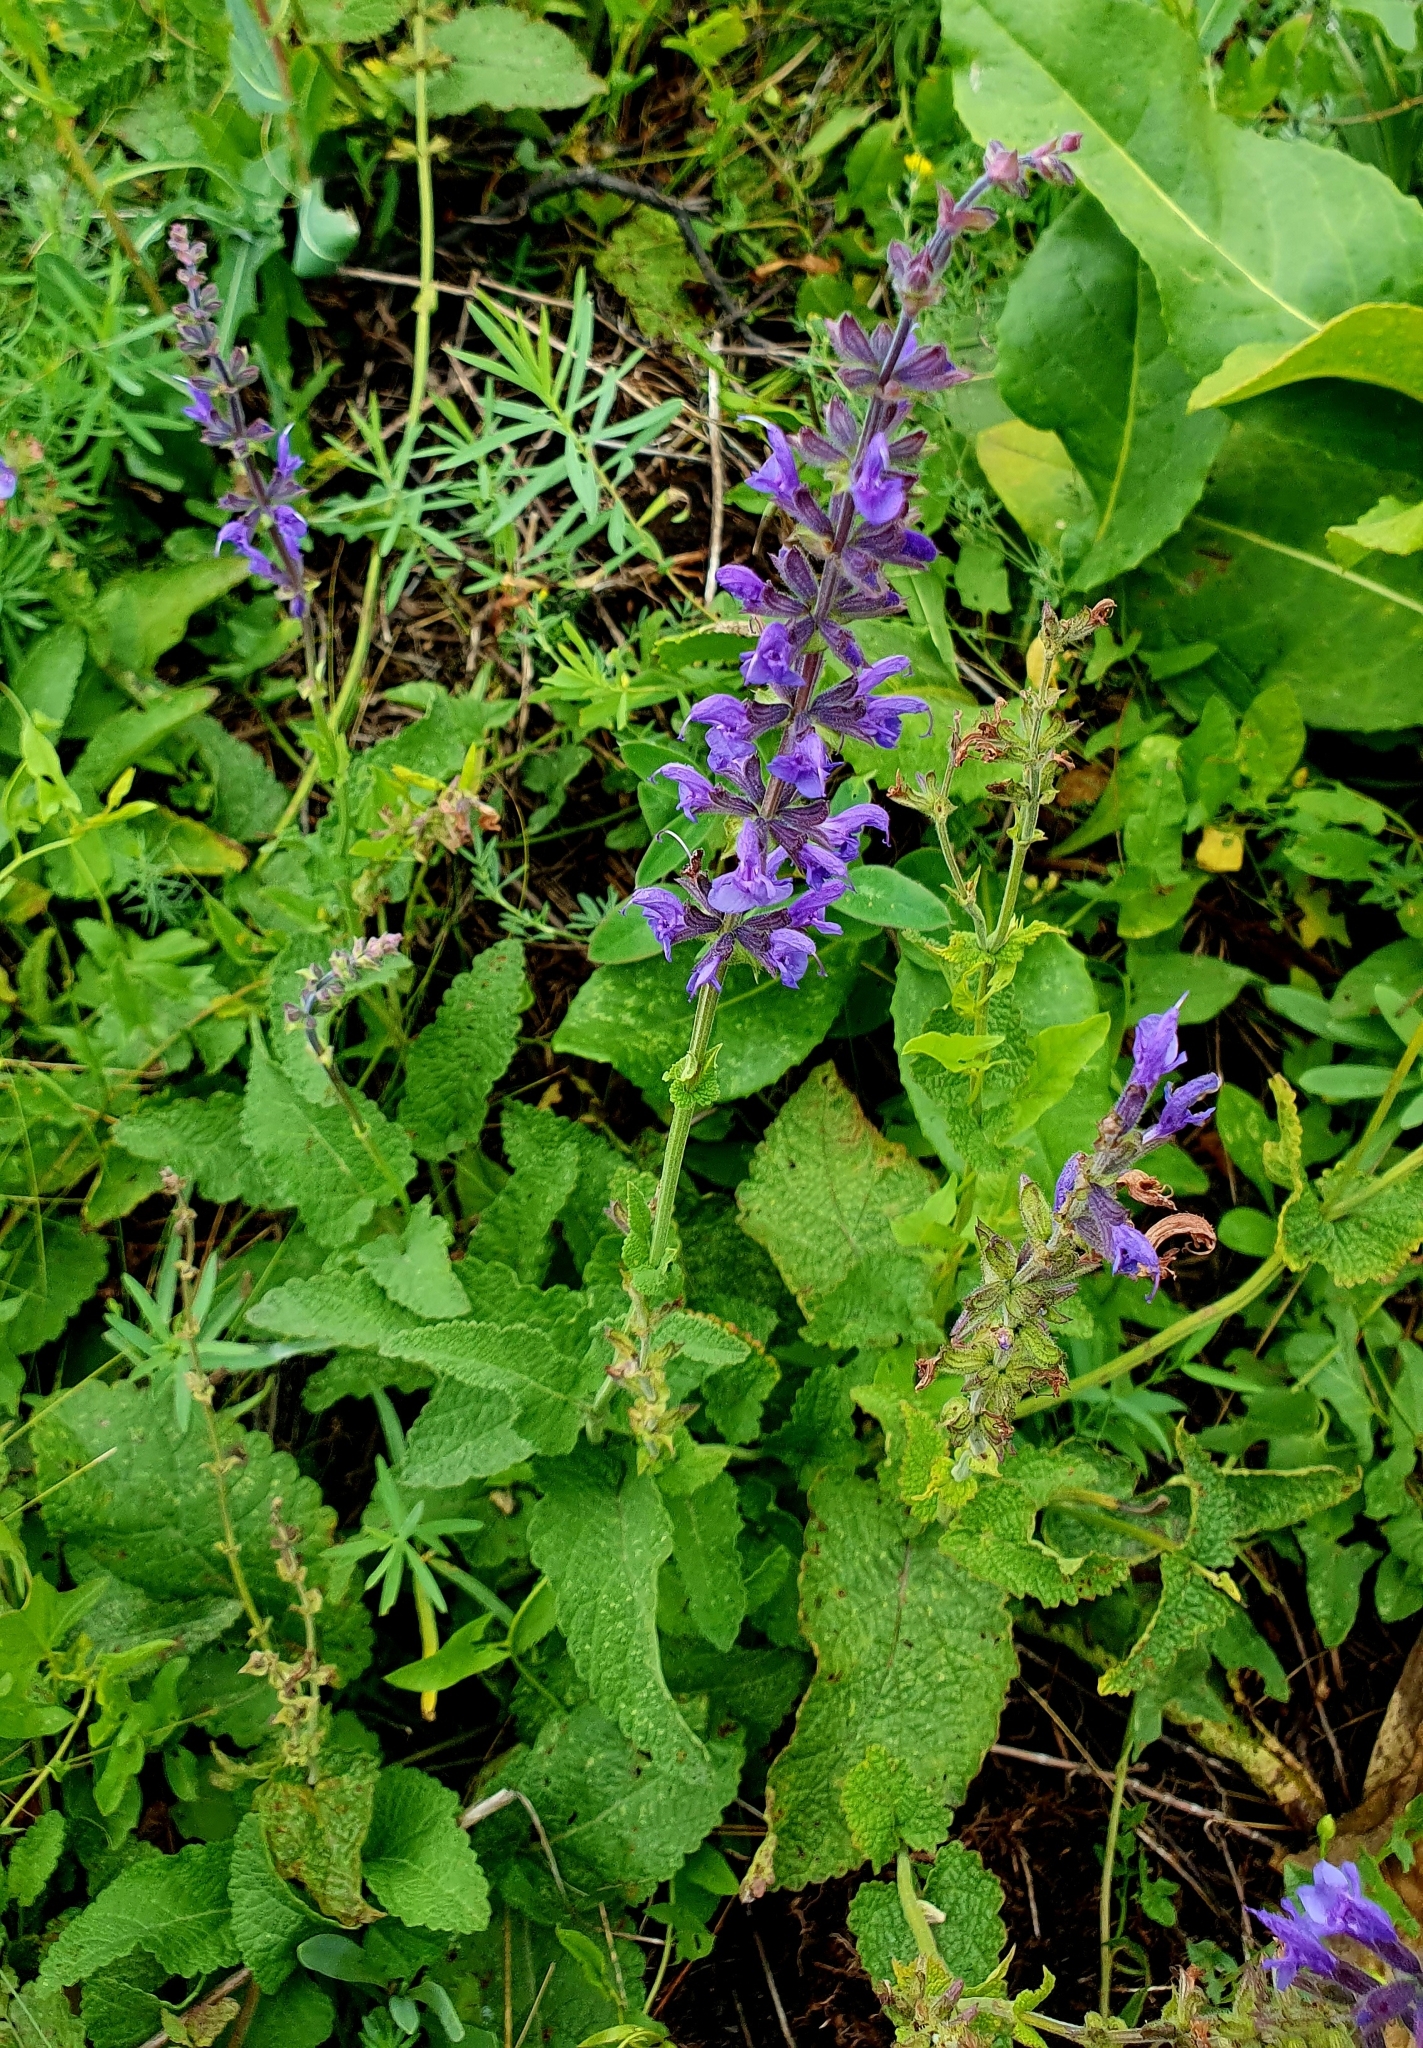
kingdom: Plantae
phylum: Tracheophyta
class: Magnoliopsida
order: Lamiales
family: Lamiaceae
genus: Salvia
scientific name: Salvia dumetorum
